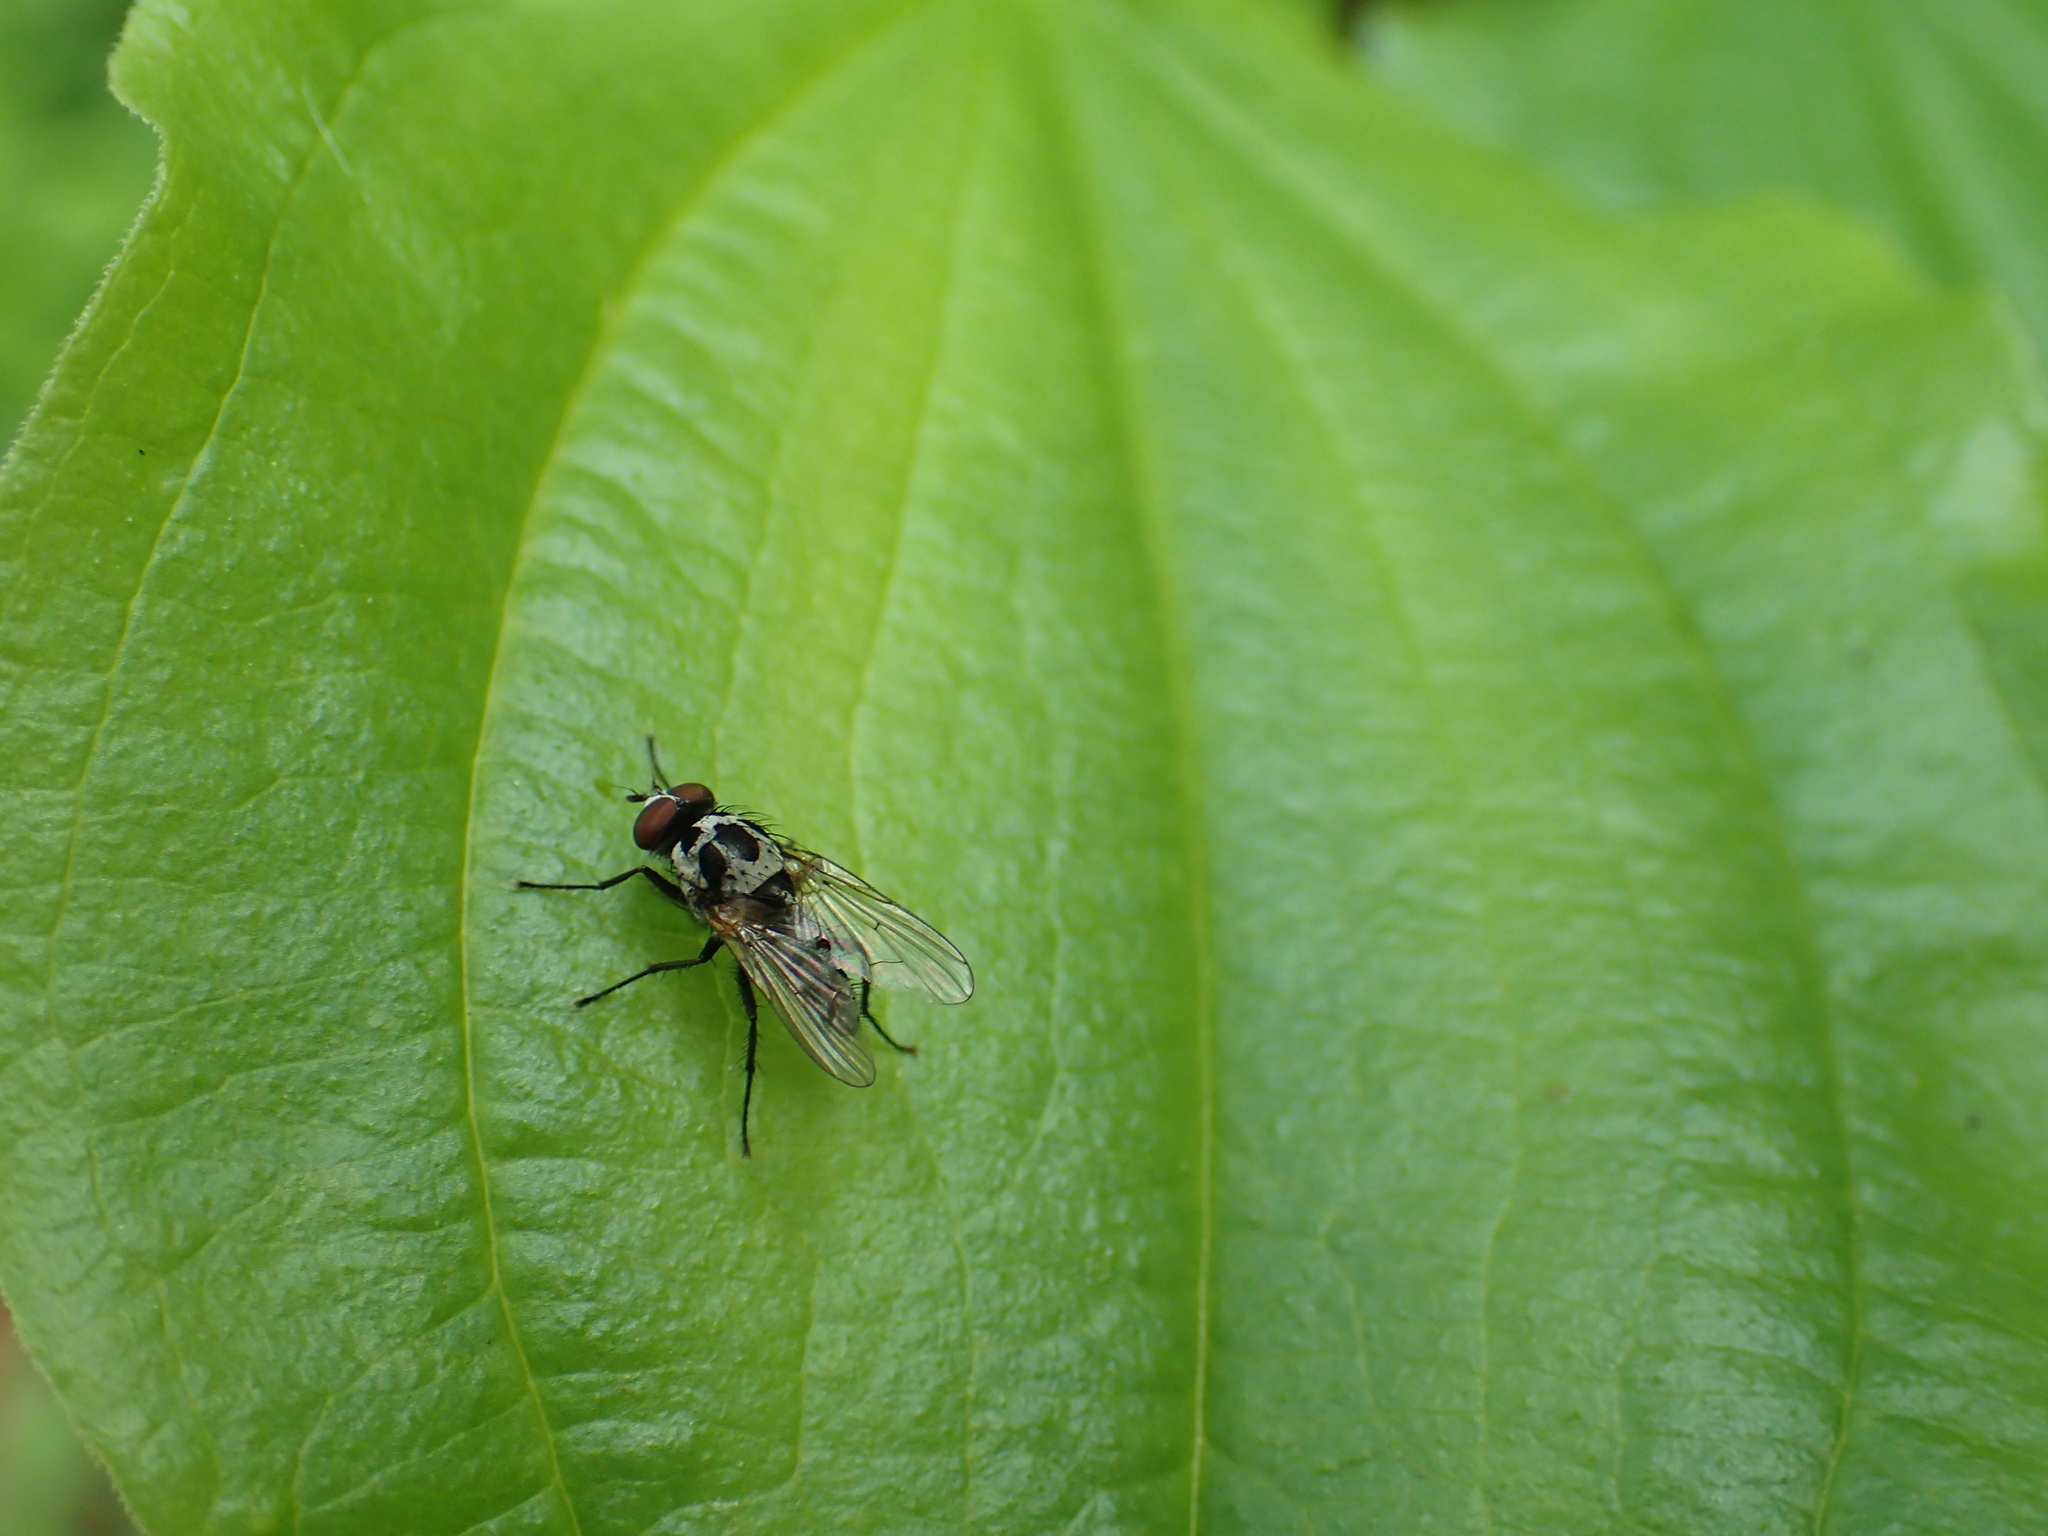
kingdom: Animalia
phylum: Arthropoda
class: Insecta
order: Diptera
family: Anthomyiidae
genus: Anthomyia
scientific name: Anthomyia procellaris
